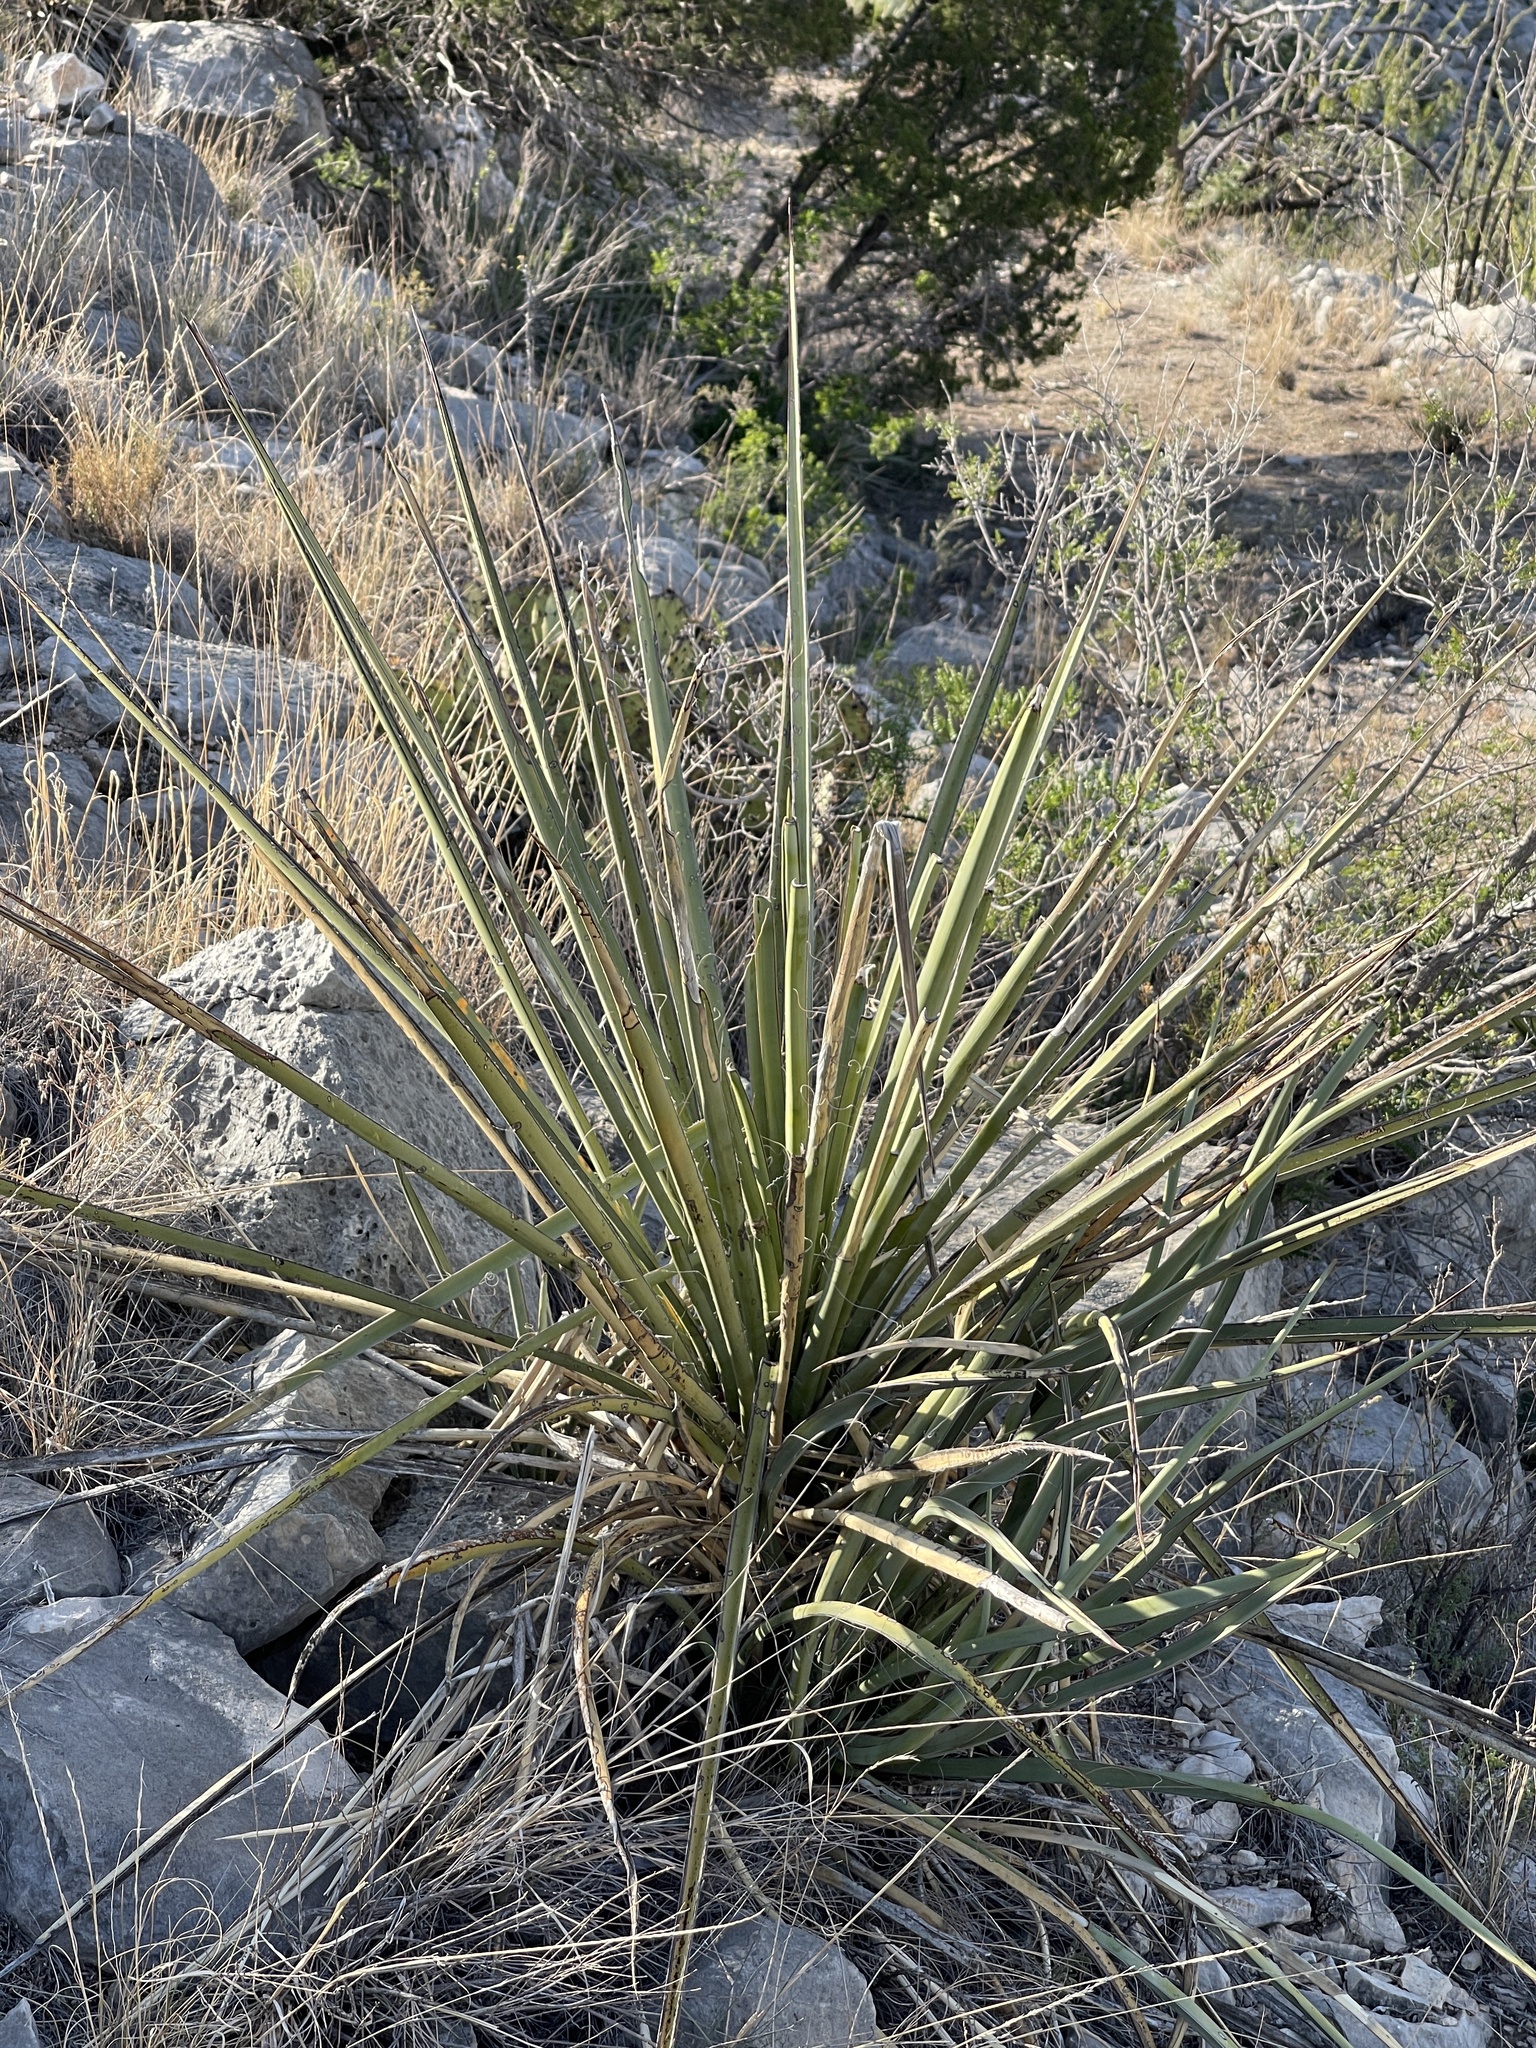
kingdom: Plantae
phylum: Tracheophyta
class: Liliopsida
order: Asparagales
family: Asparagaceae
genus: Yucca
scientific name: Yucca treculiana
